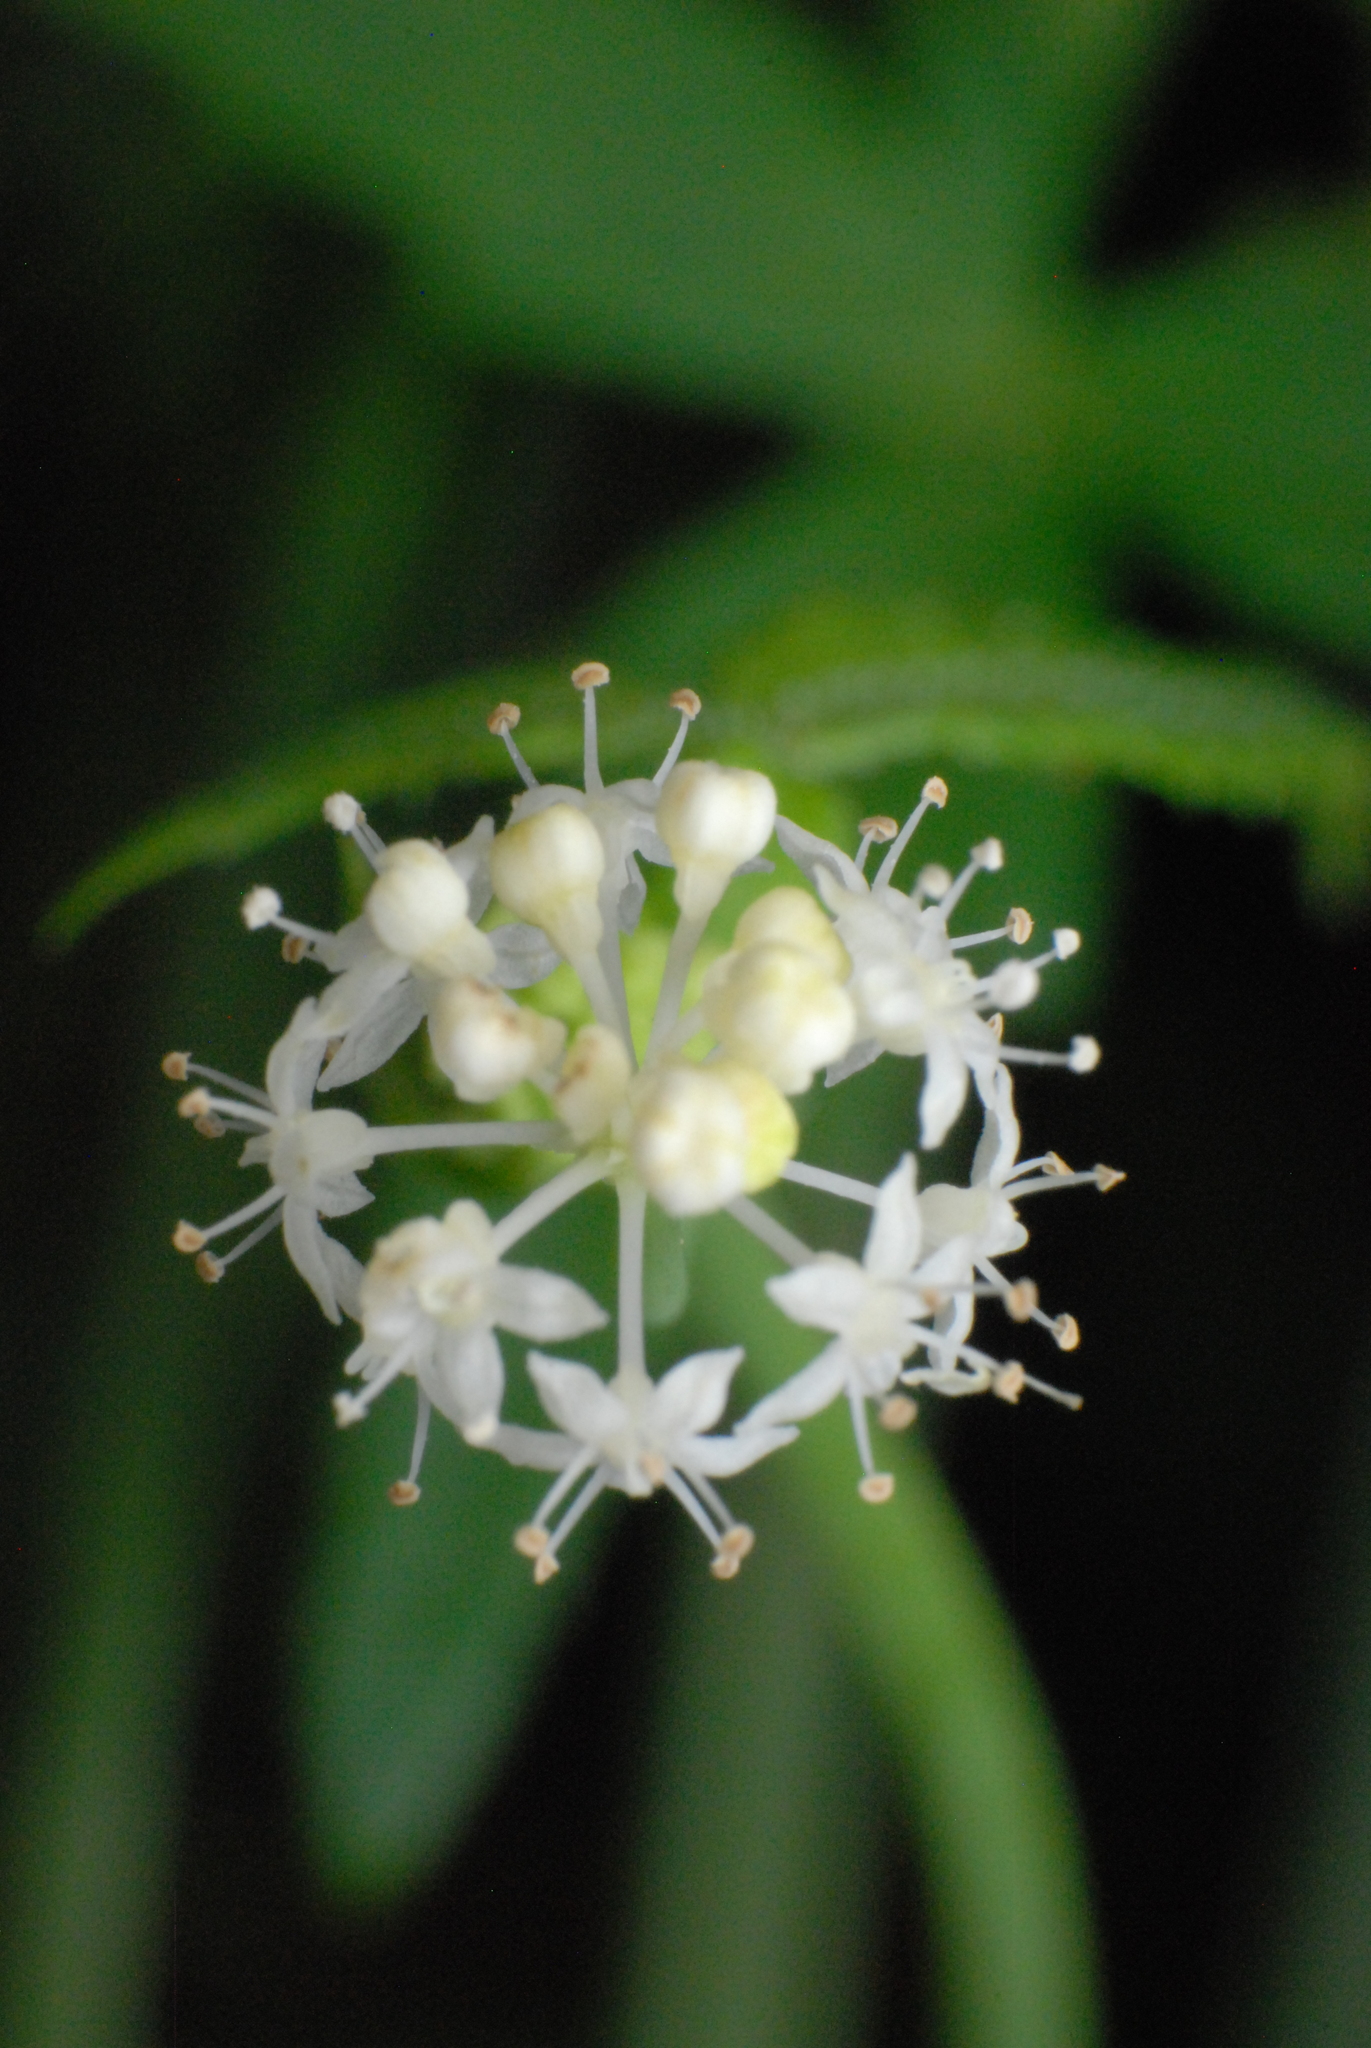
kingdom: Plantae
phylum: Tracheophyta
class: Magnoliopsida
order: Apiales
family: Araliaceae
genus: Hydrocotyle
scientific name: Hydrocotyle geraniifolia
